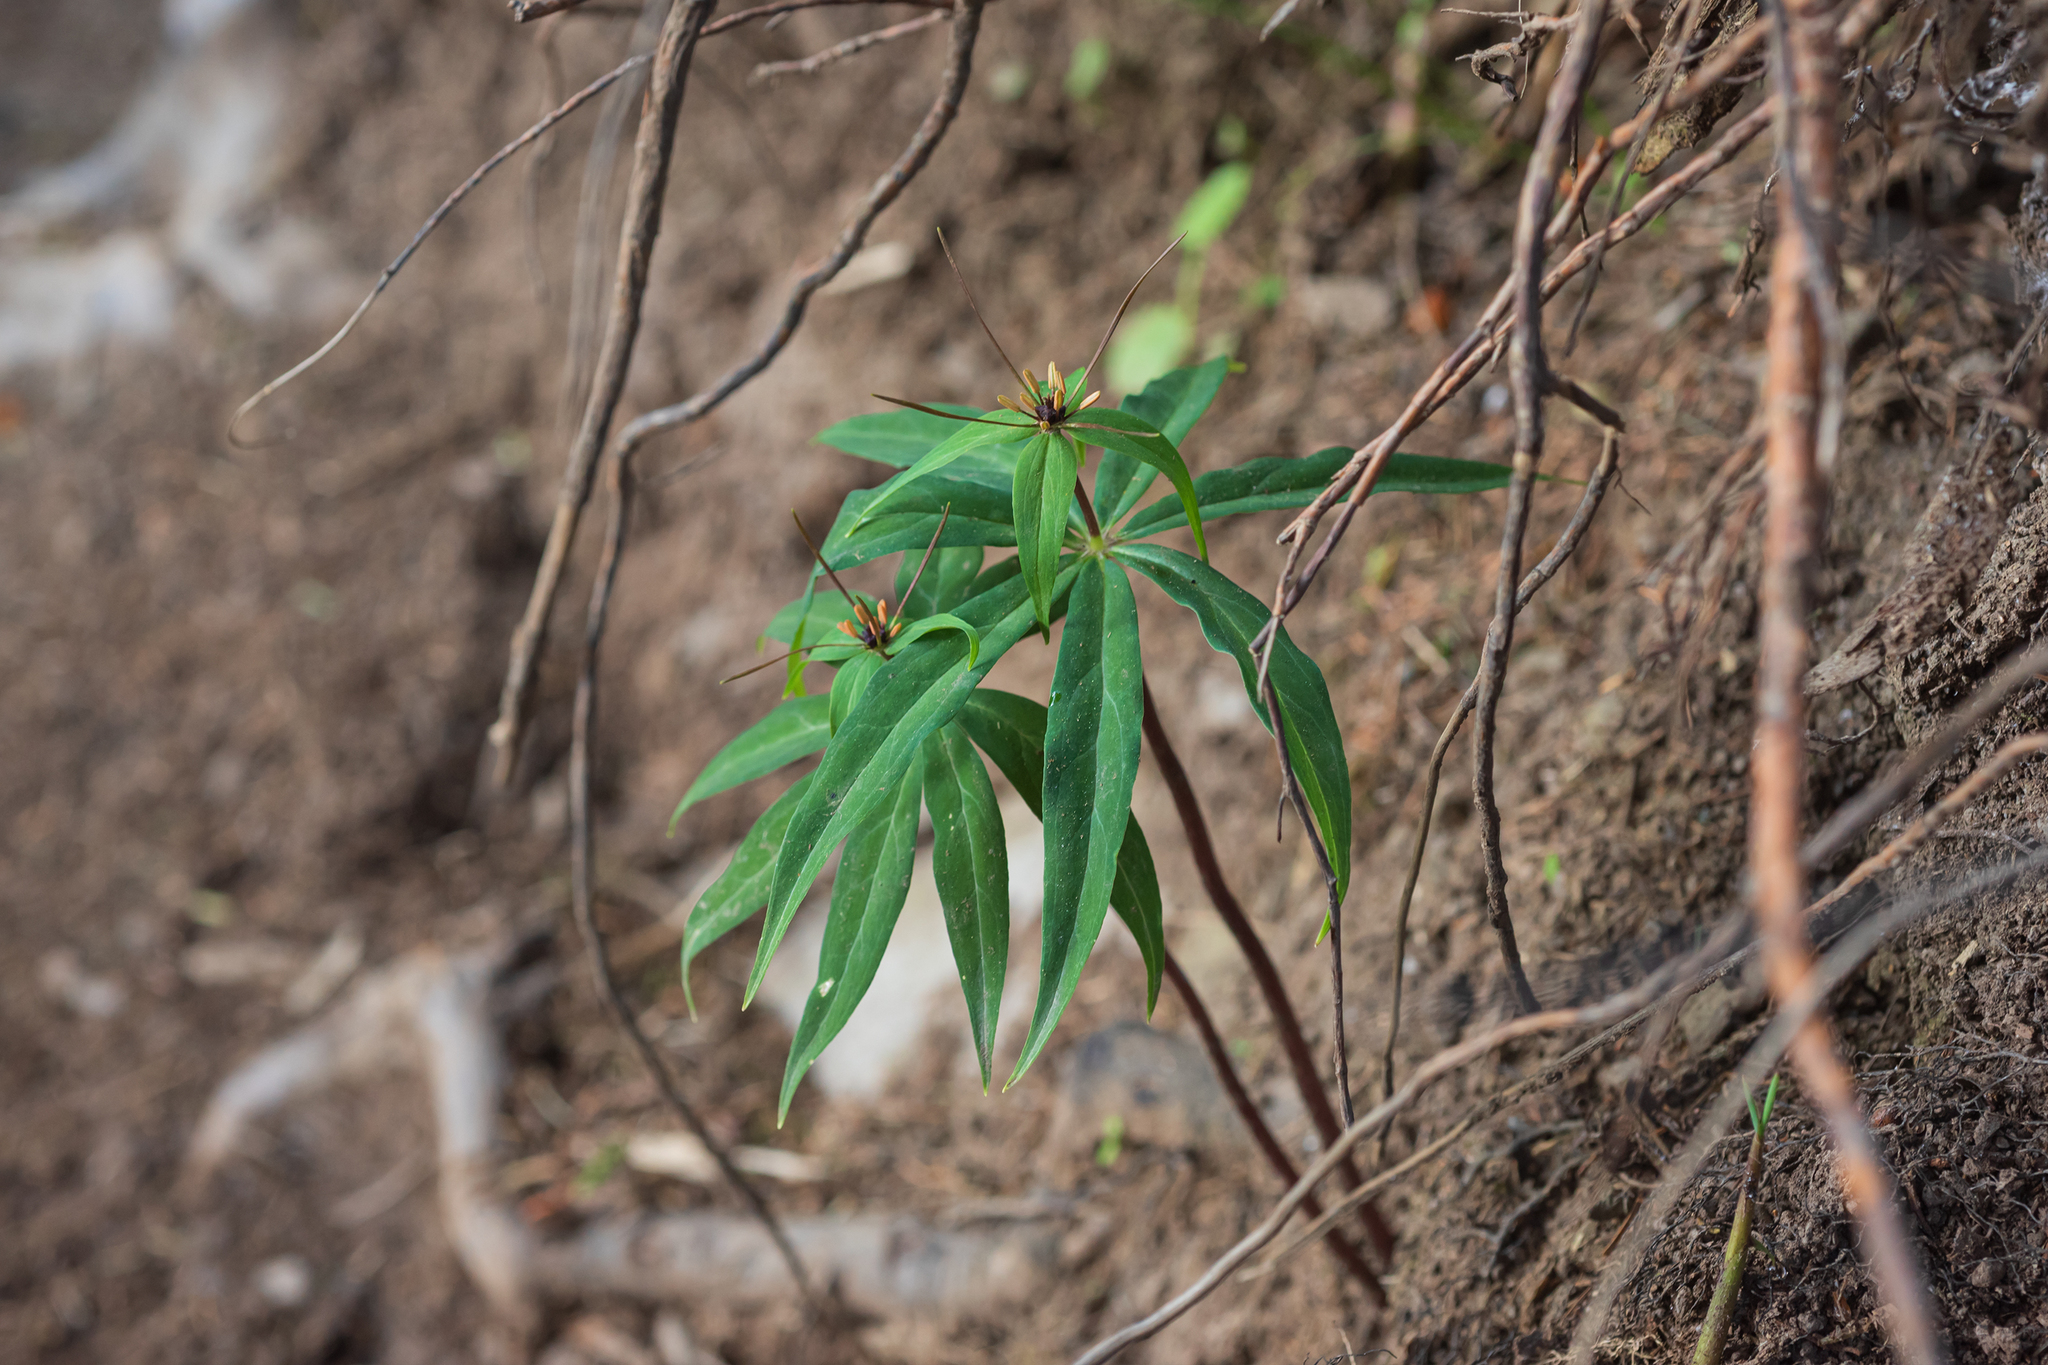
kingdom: Plantae
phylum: Tracheophyta
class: Liliopsida
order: Liliales
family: Melanthiaceae
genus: Paris
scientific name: Paris polyphylla
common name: Love apple
